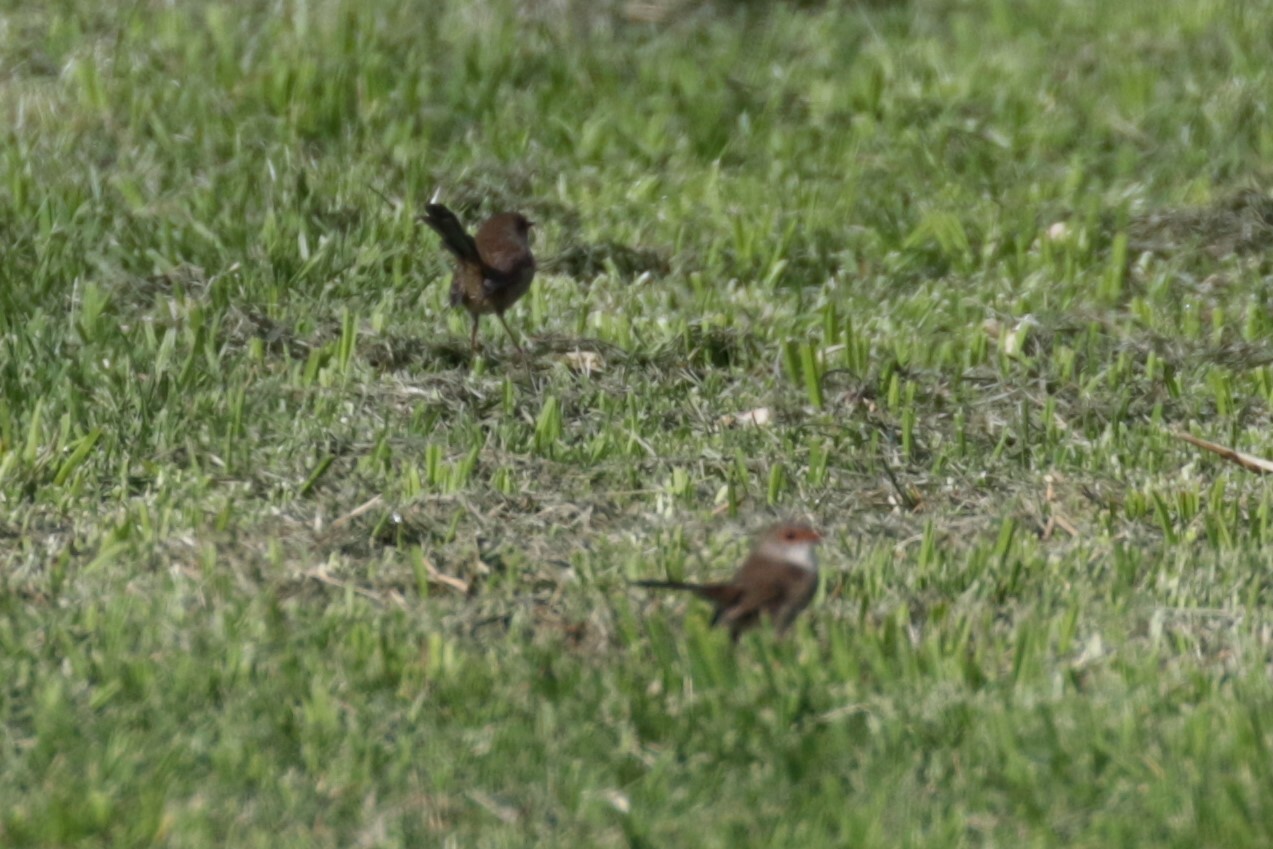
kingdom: Animalia
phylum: Chordata
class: Aves
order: Passeriformes
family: Maluridae
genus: Malurus
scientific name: Malurus cyaneus
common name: Superb fairywren
